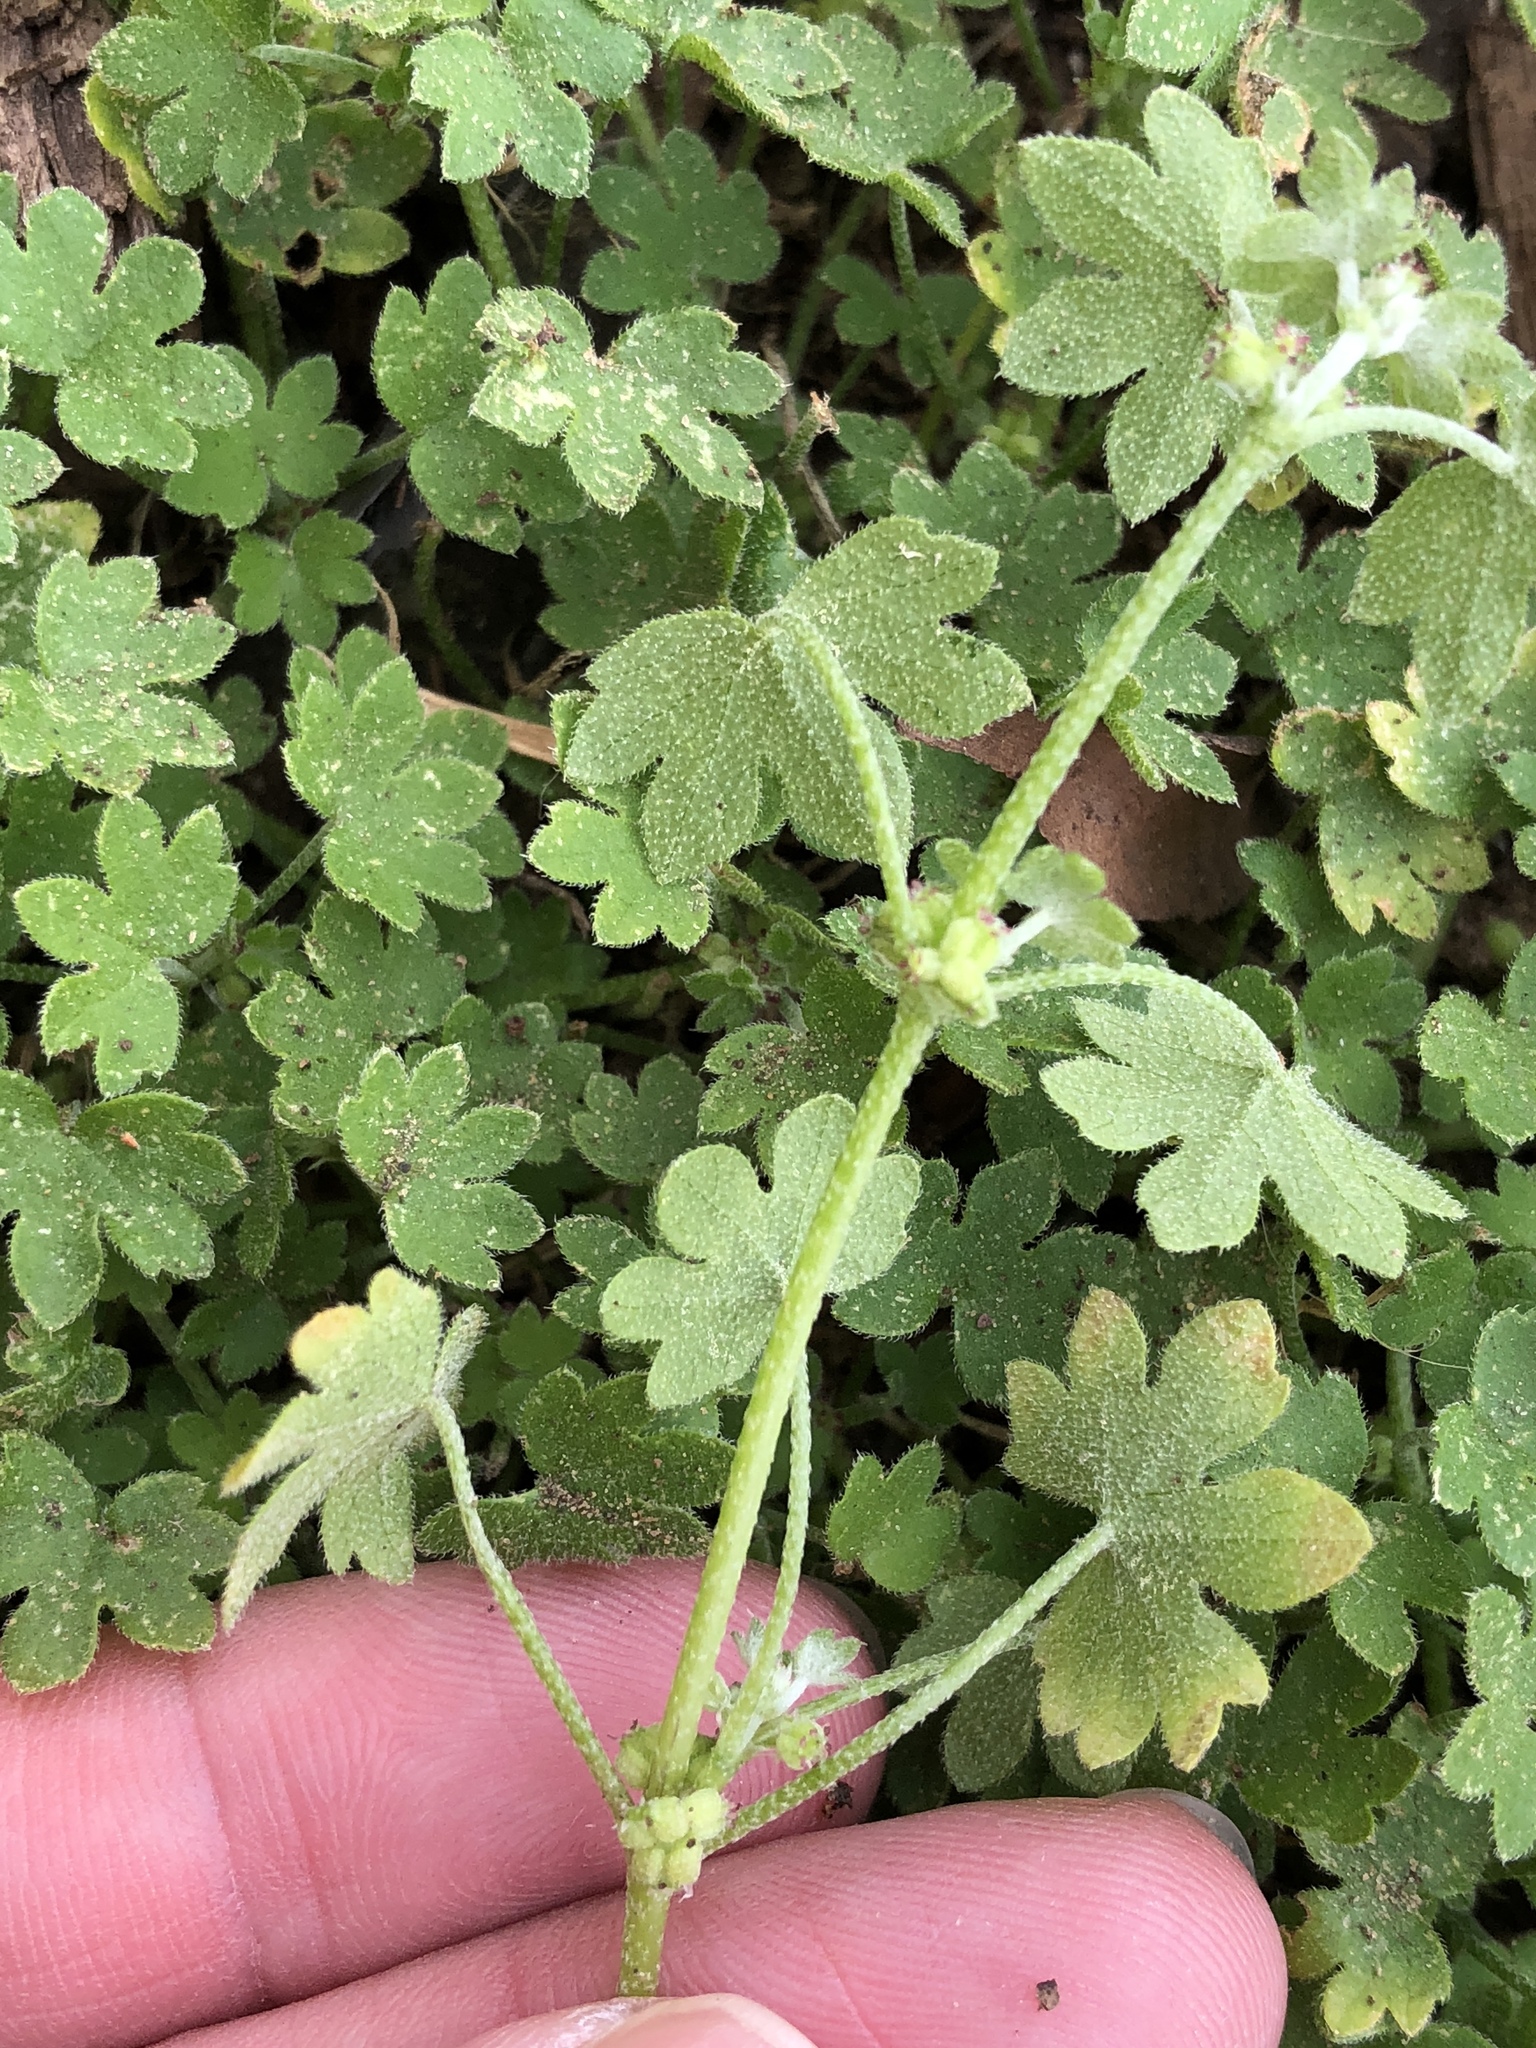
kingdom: Plantae
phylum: Tracheophyta
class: Magnoliopsida
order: Apiales
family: Apiaceae
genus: Bowlesia
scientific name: Bowlesia incana
